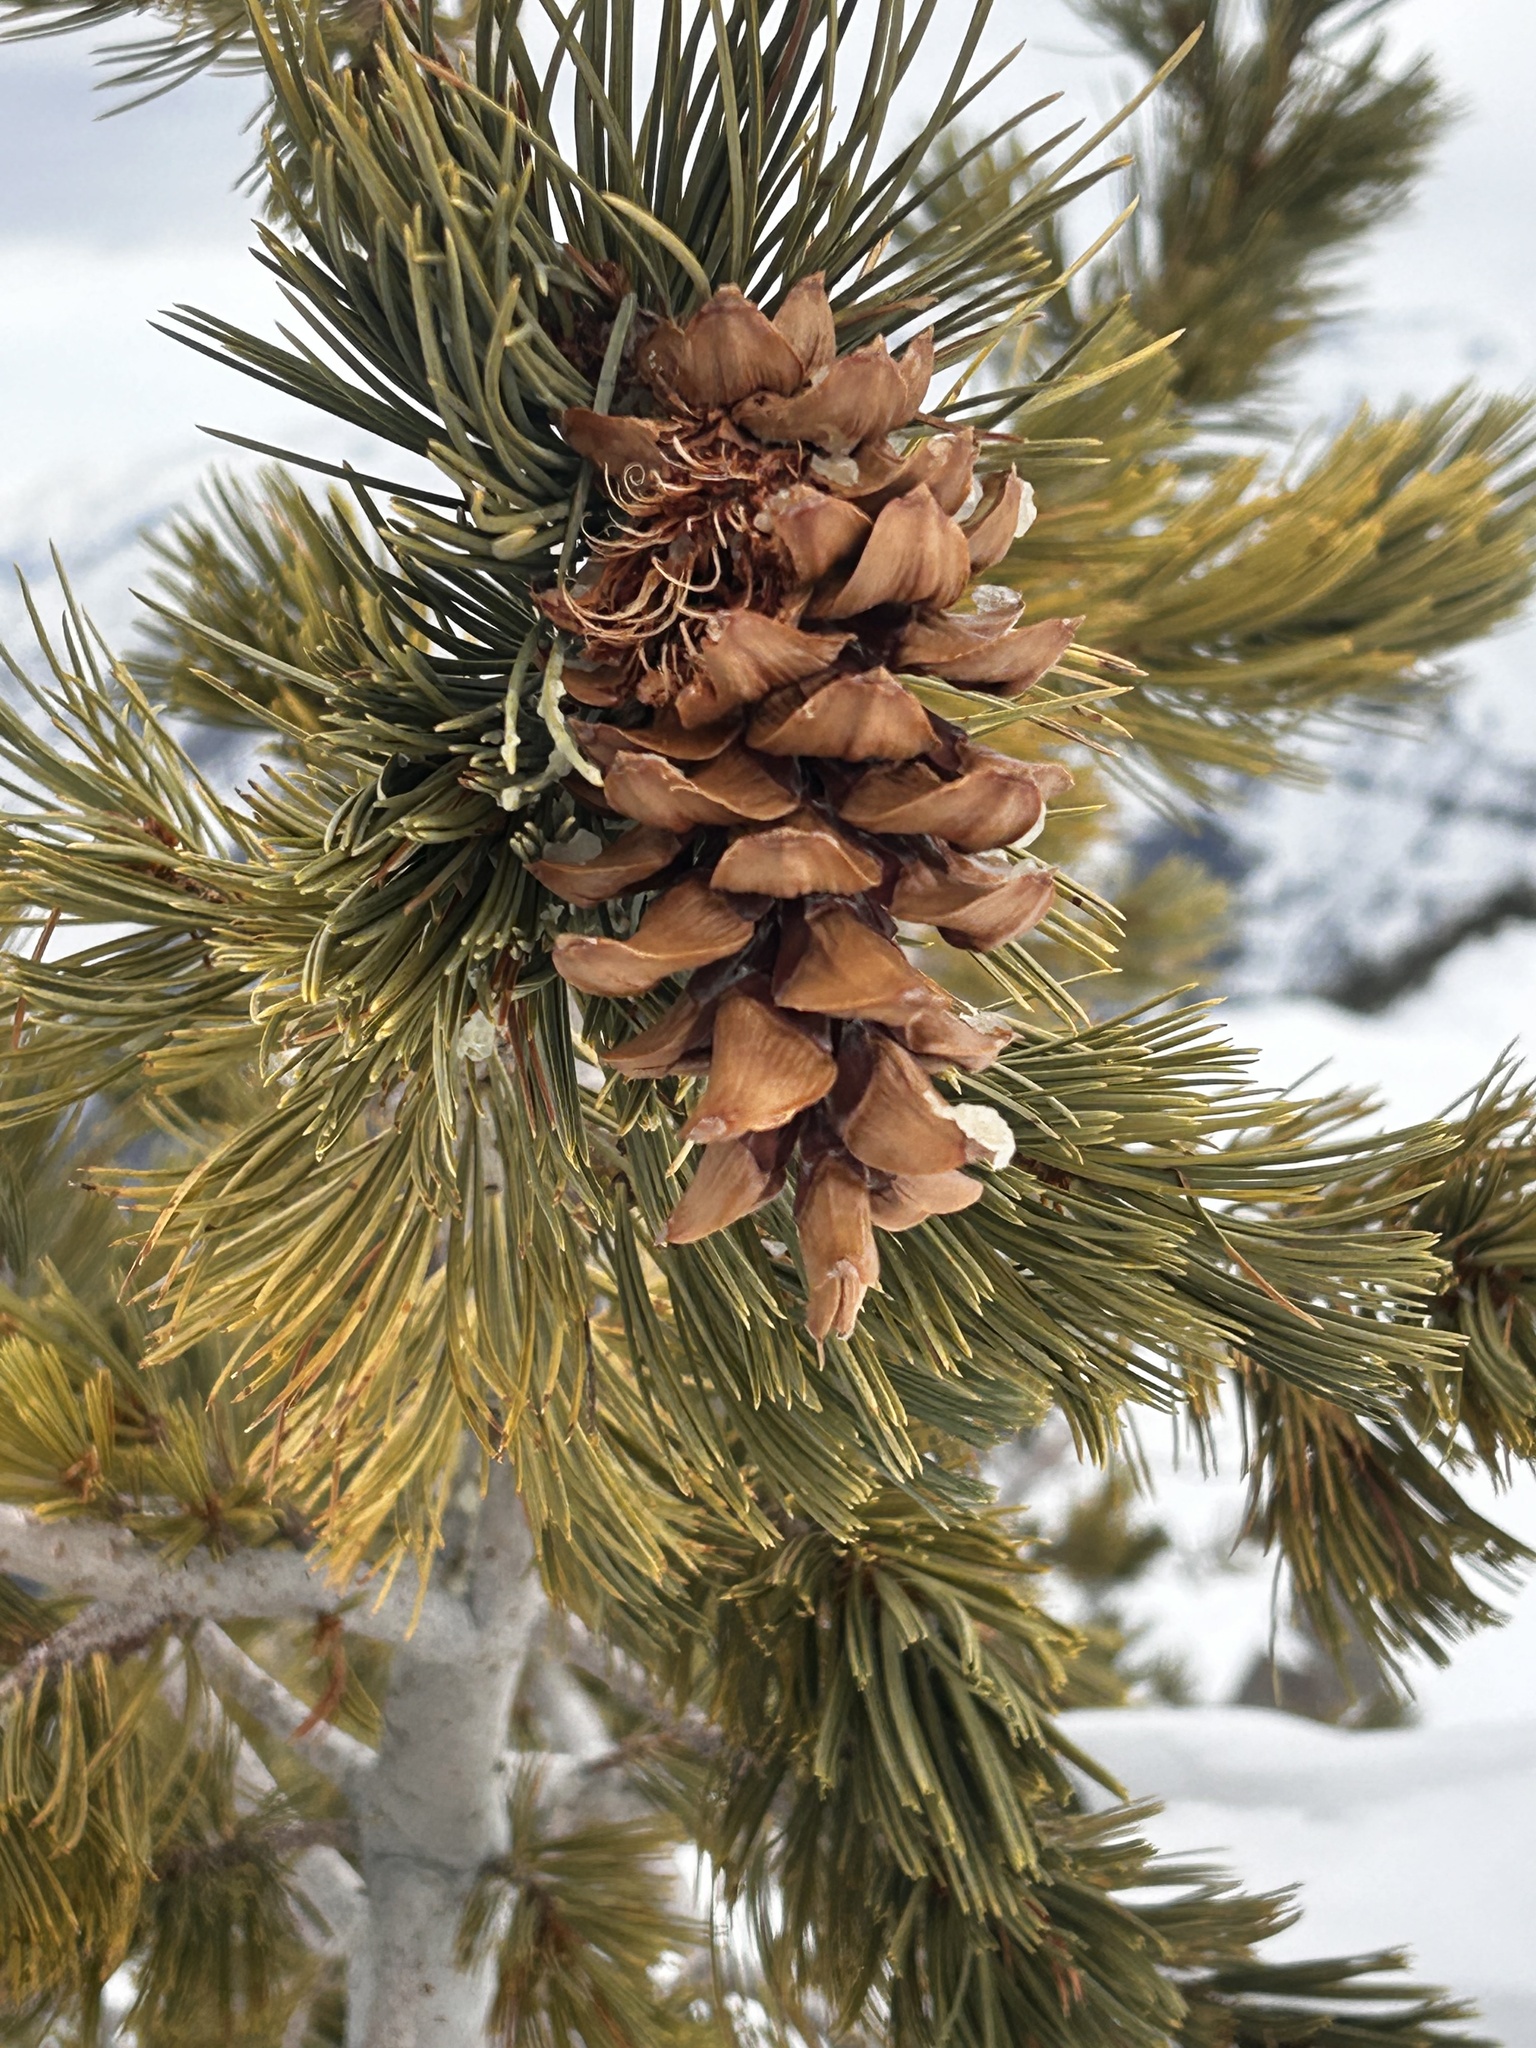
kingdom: Plantae
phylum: Tracheophyta
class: Pinopsida
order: Pinales
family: Pinaceae
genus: Pinus
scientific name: Pinus flexilis
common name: Limber pine
